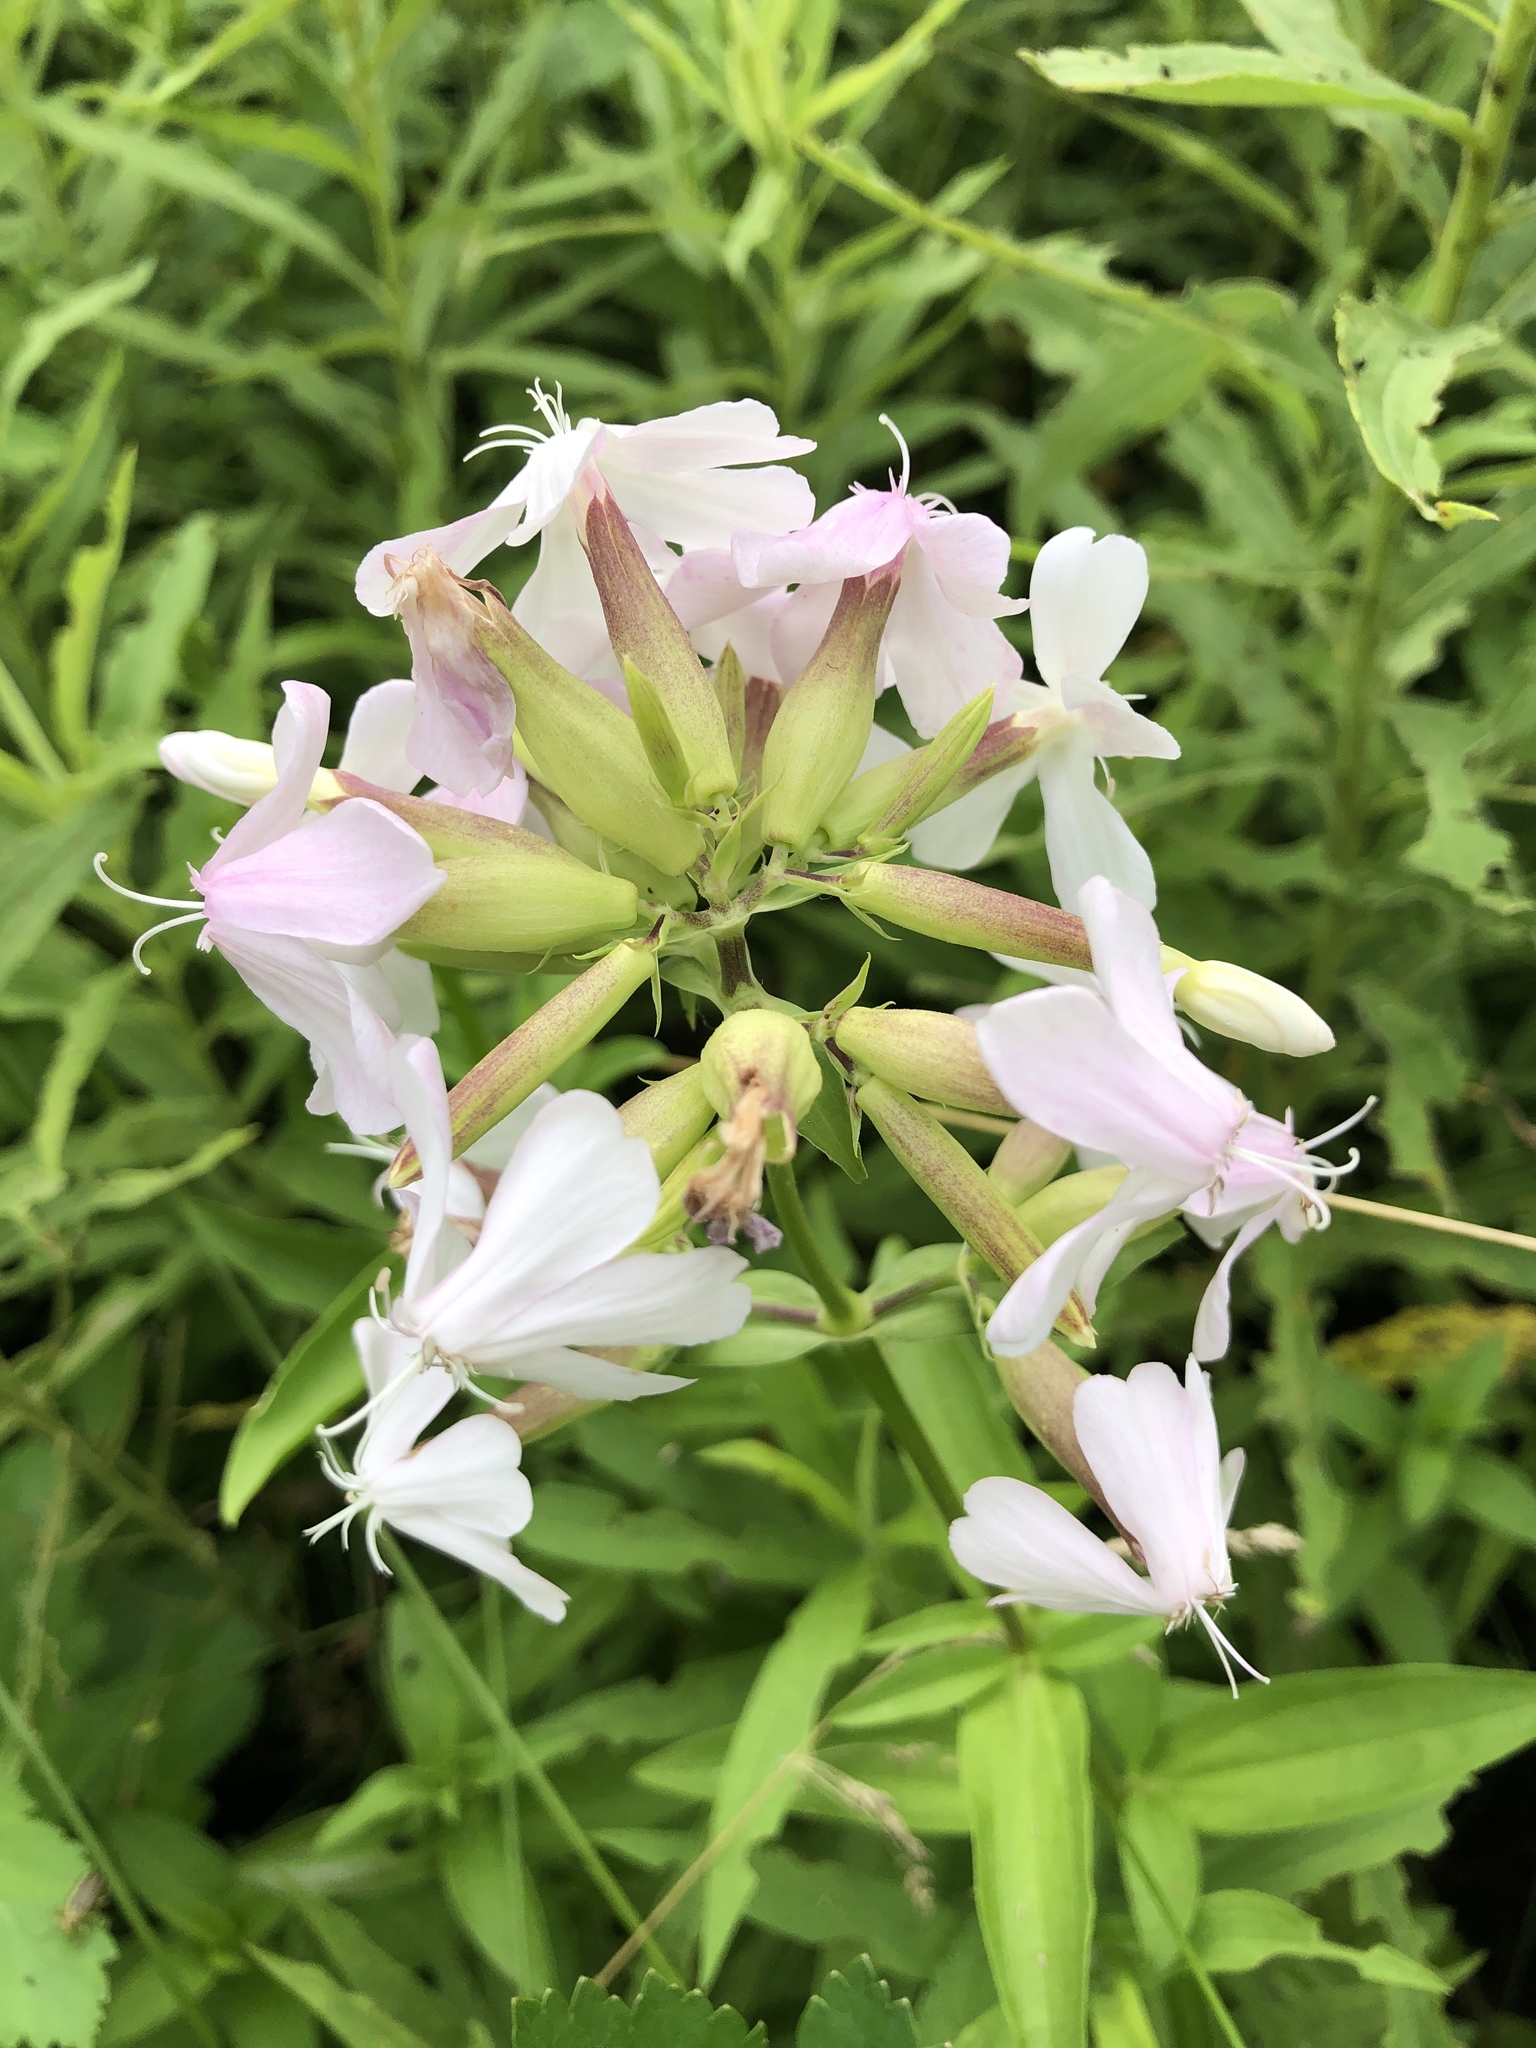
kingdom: Plantae
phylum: Tracheophyta
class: Magnoliopsida
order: Caryophyllales
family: Caryophyllaceae
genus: Saponaria
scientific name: Saponaria officinalis
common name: Soapwort
